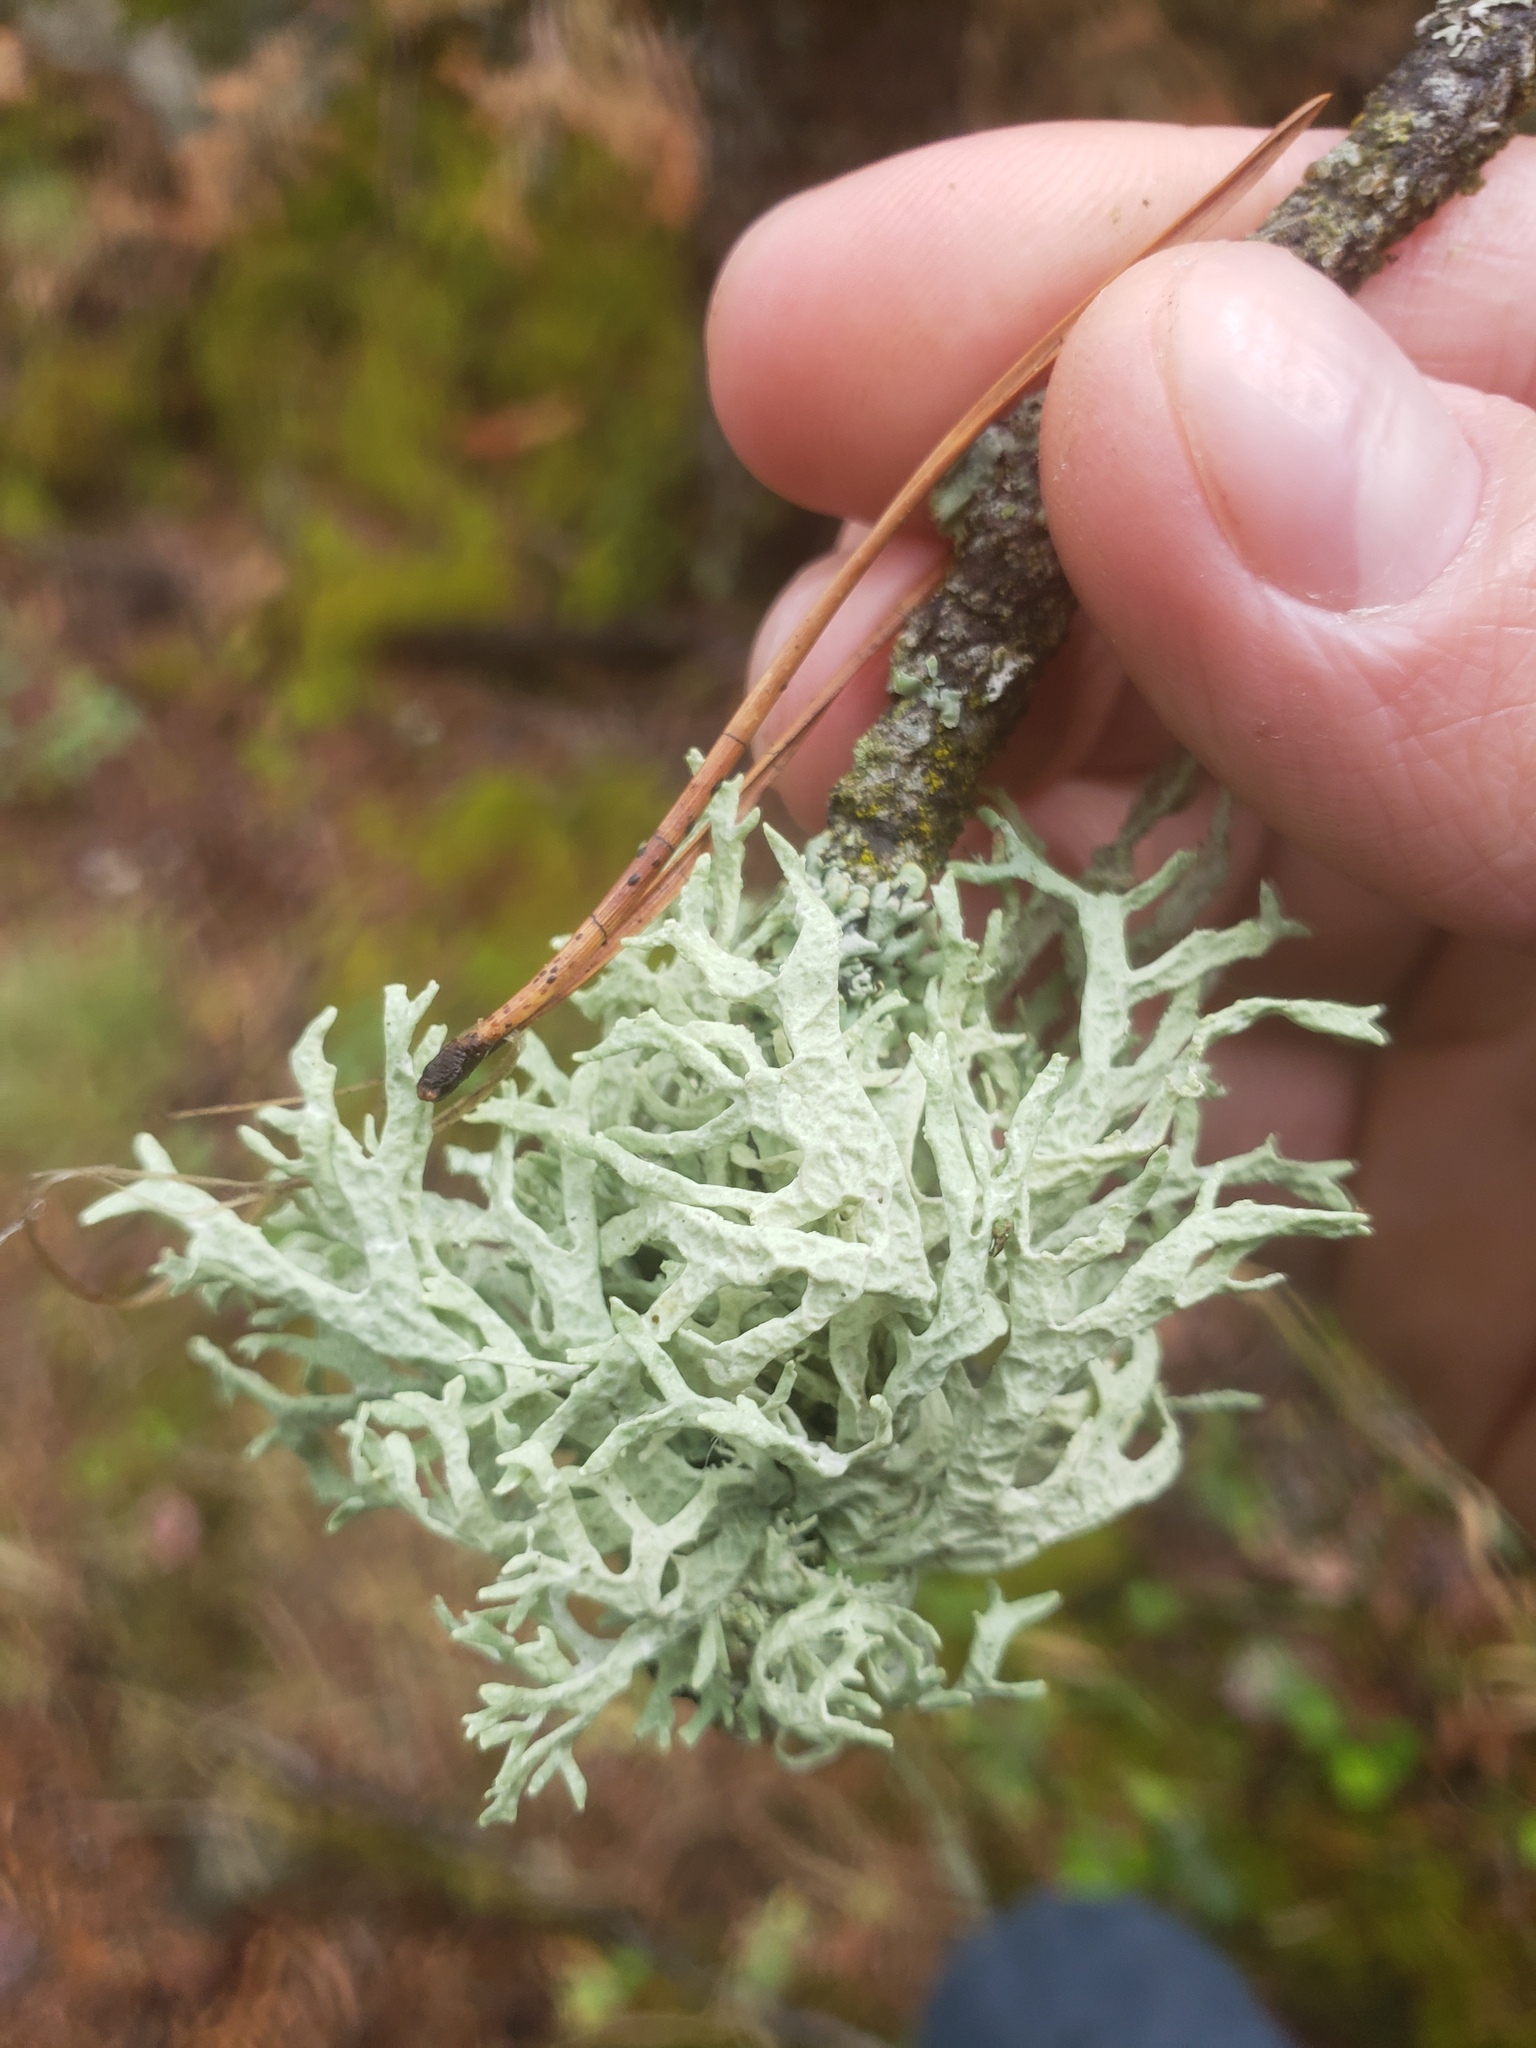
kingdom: Fungi
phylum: Ascomycota
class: Lecanoromycetes
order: Lecanorales
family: Parmeliaceae
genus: Evernia
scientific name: Evernia prunastri
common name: Oak moss
